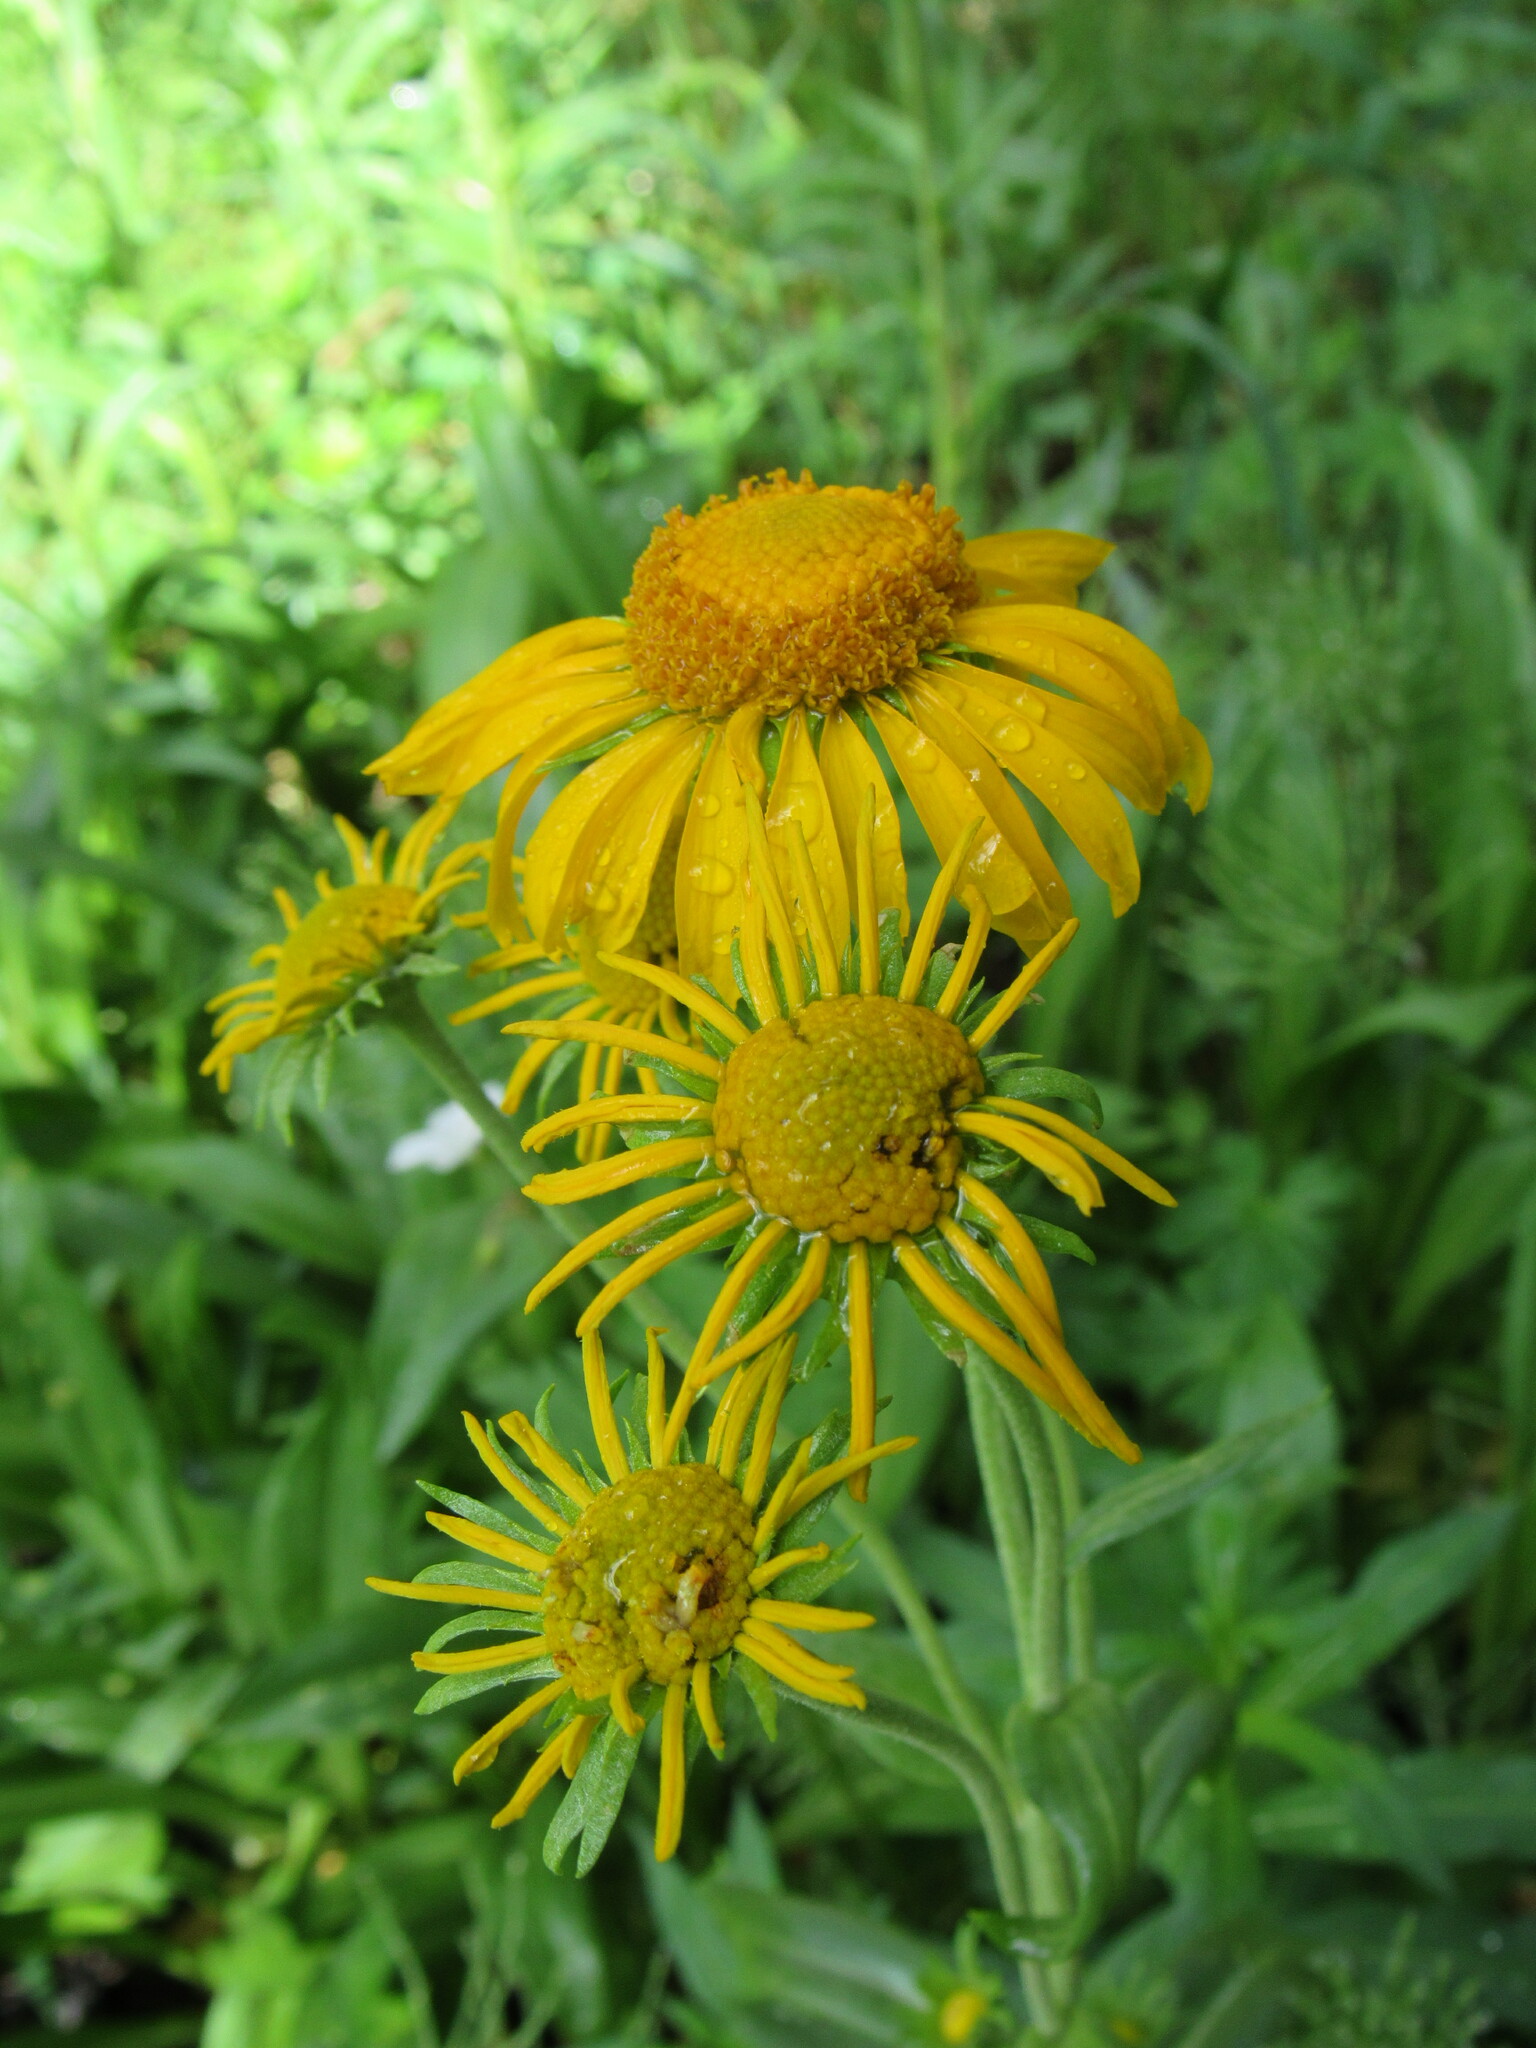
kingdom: Plantae
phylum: Tracheophyta
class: Magnoliopsida
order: Asterales
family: Asteraceae
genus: Hymenoxys
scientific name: Hymenoxys hoopesii
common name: Orange-sneezeweed
